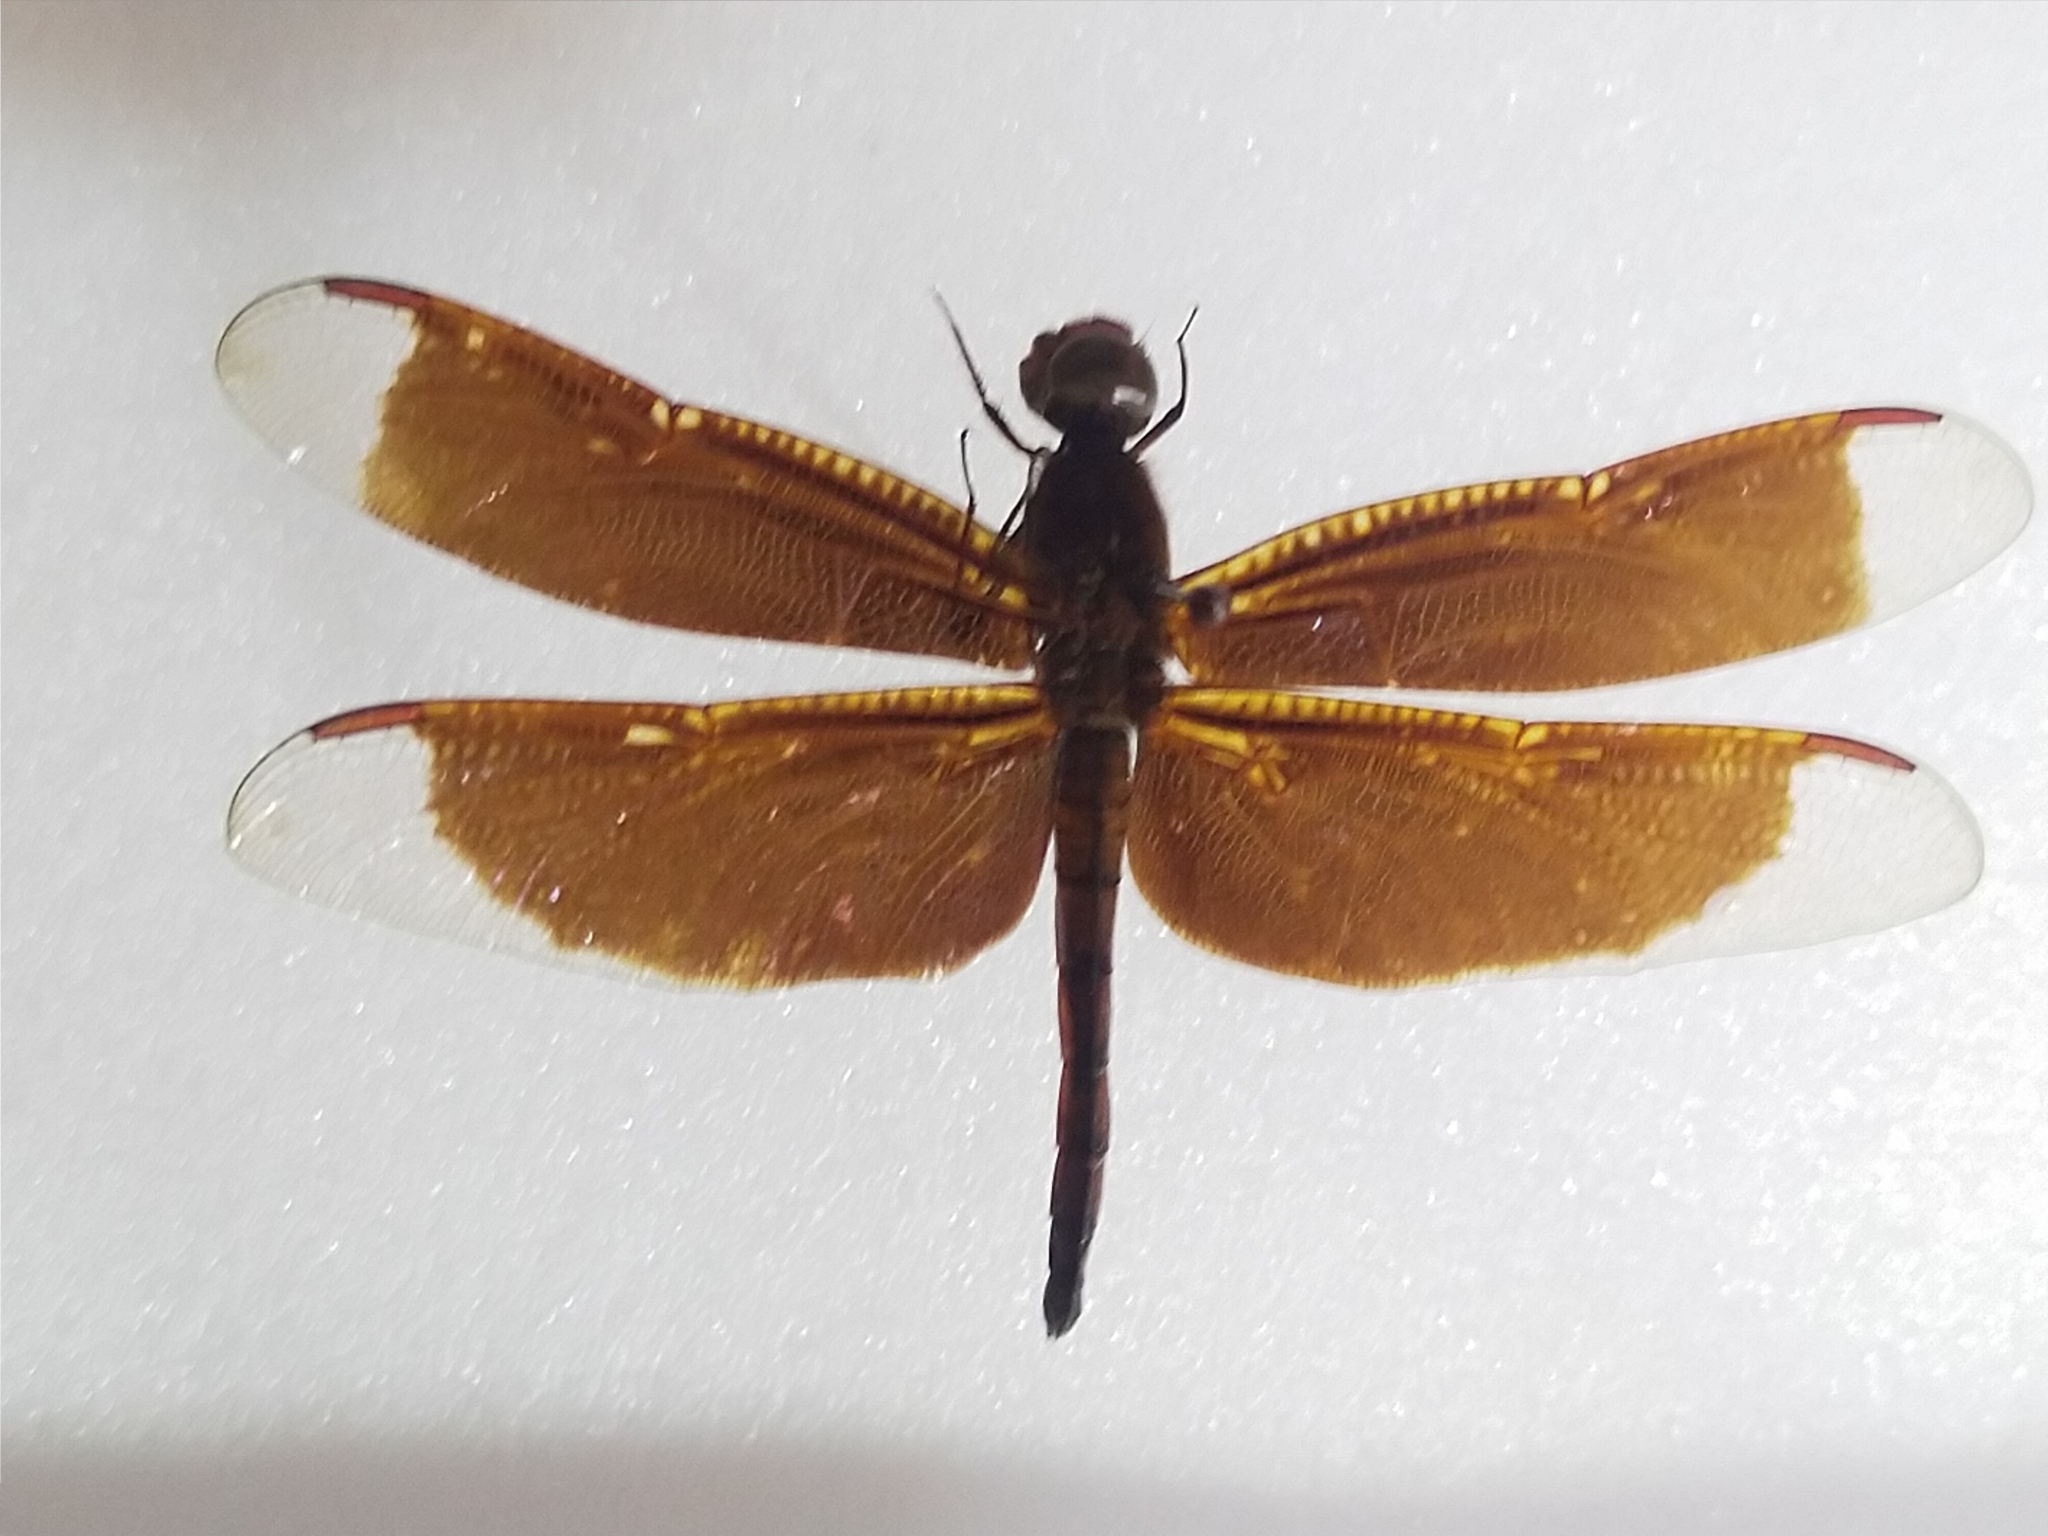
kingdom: Animalia
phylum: Arthropoda
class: Insecta
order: Odonata
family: Libellulidae
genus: Neurothemis
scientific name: Neurothemis taiwanensis
